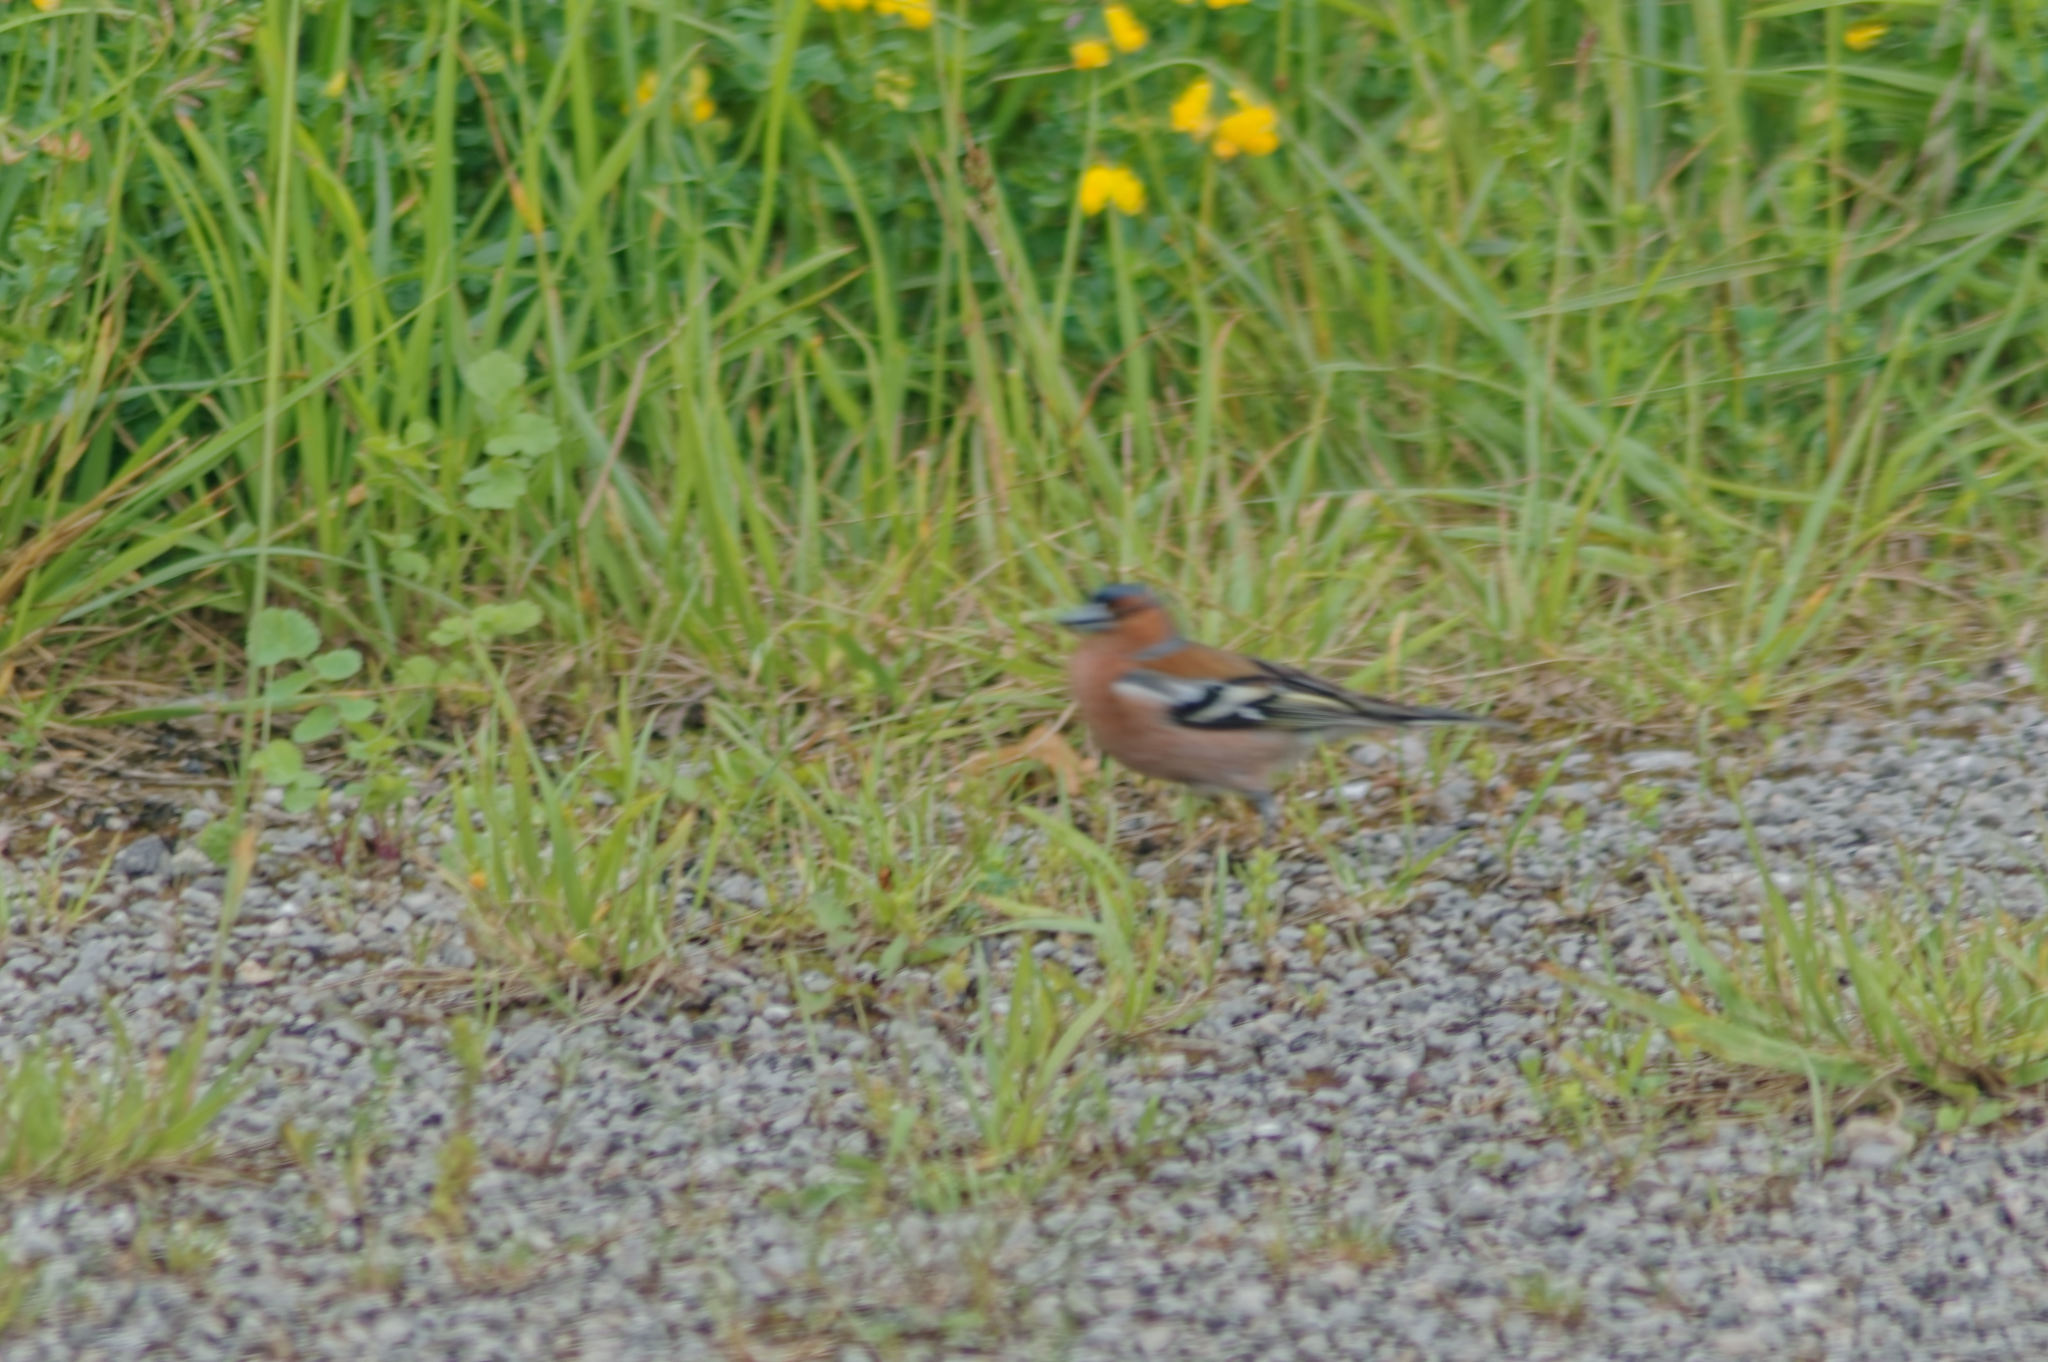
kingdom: Animalia
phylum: Chordata
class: Aves
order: Passeriformes
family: Fringillidae
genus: Fringilla
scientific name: Fringilla coelebs
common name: Common chaffinch
